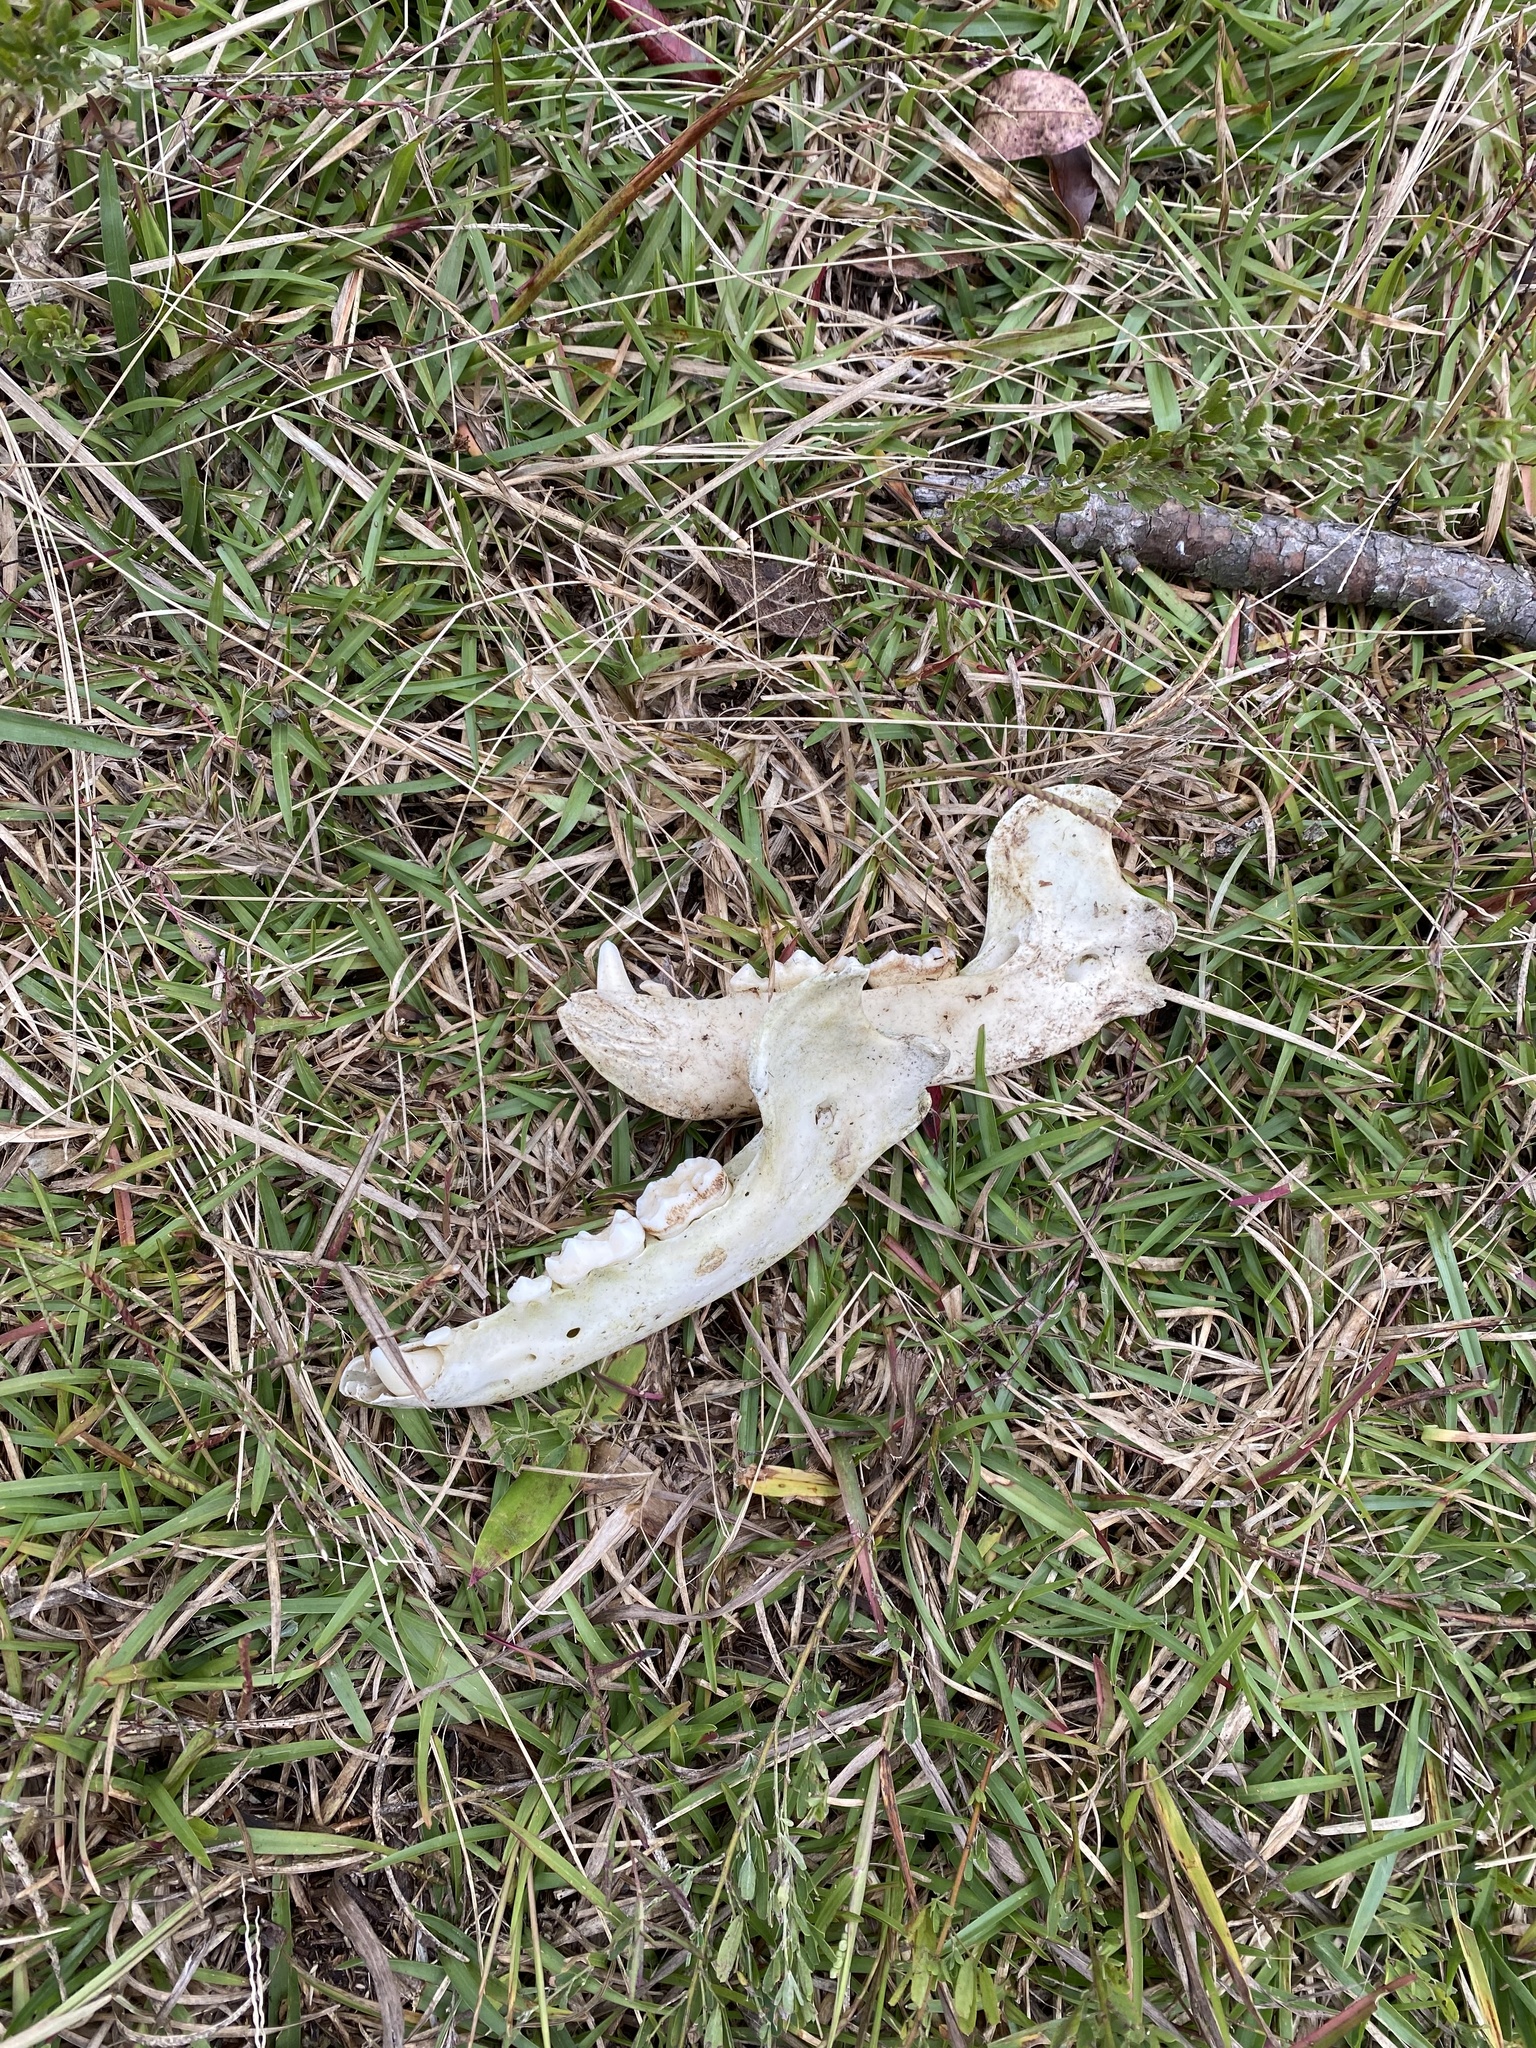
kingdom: Animalia
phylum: Chordata
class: Mammalia
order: Carnivora
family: Ursidae
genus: Ursus
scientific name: Ursus americanus
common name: American black bear
